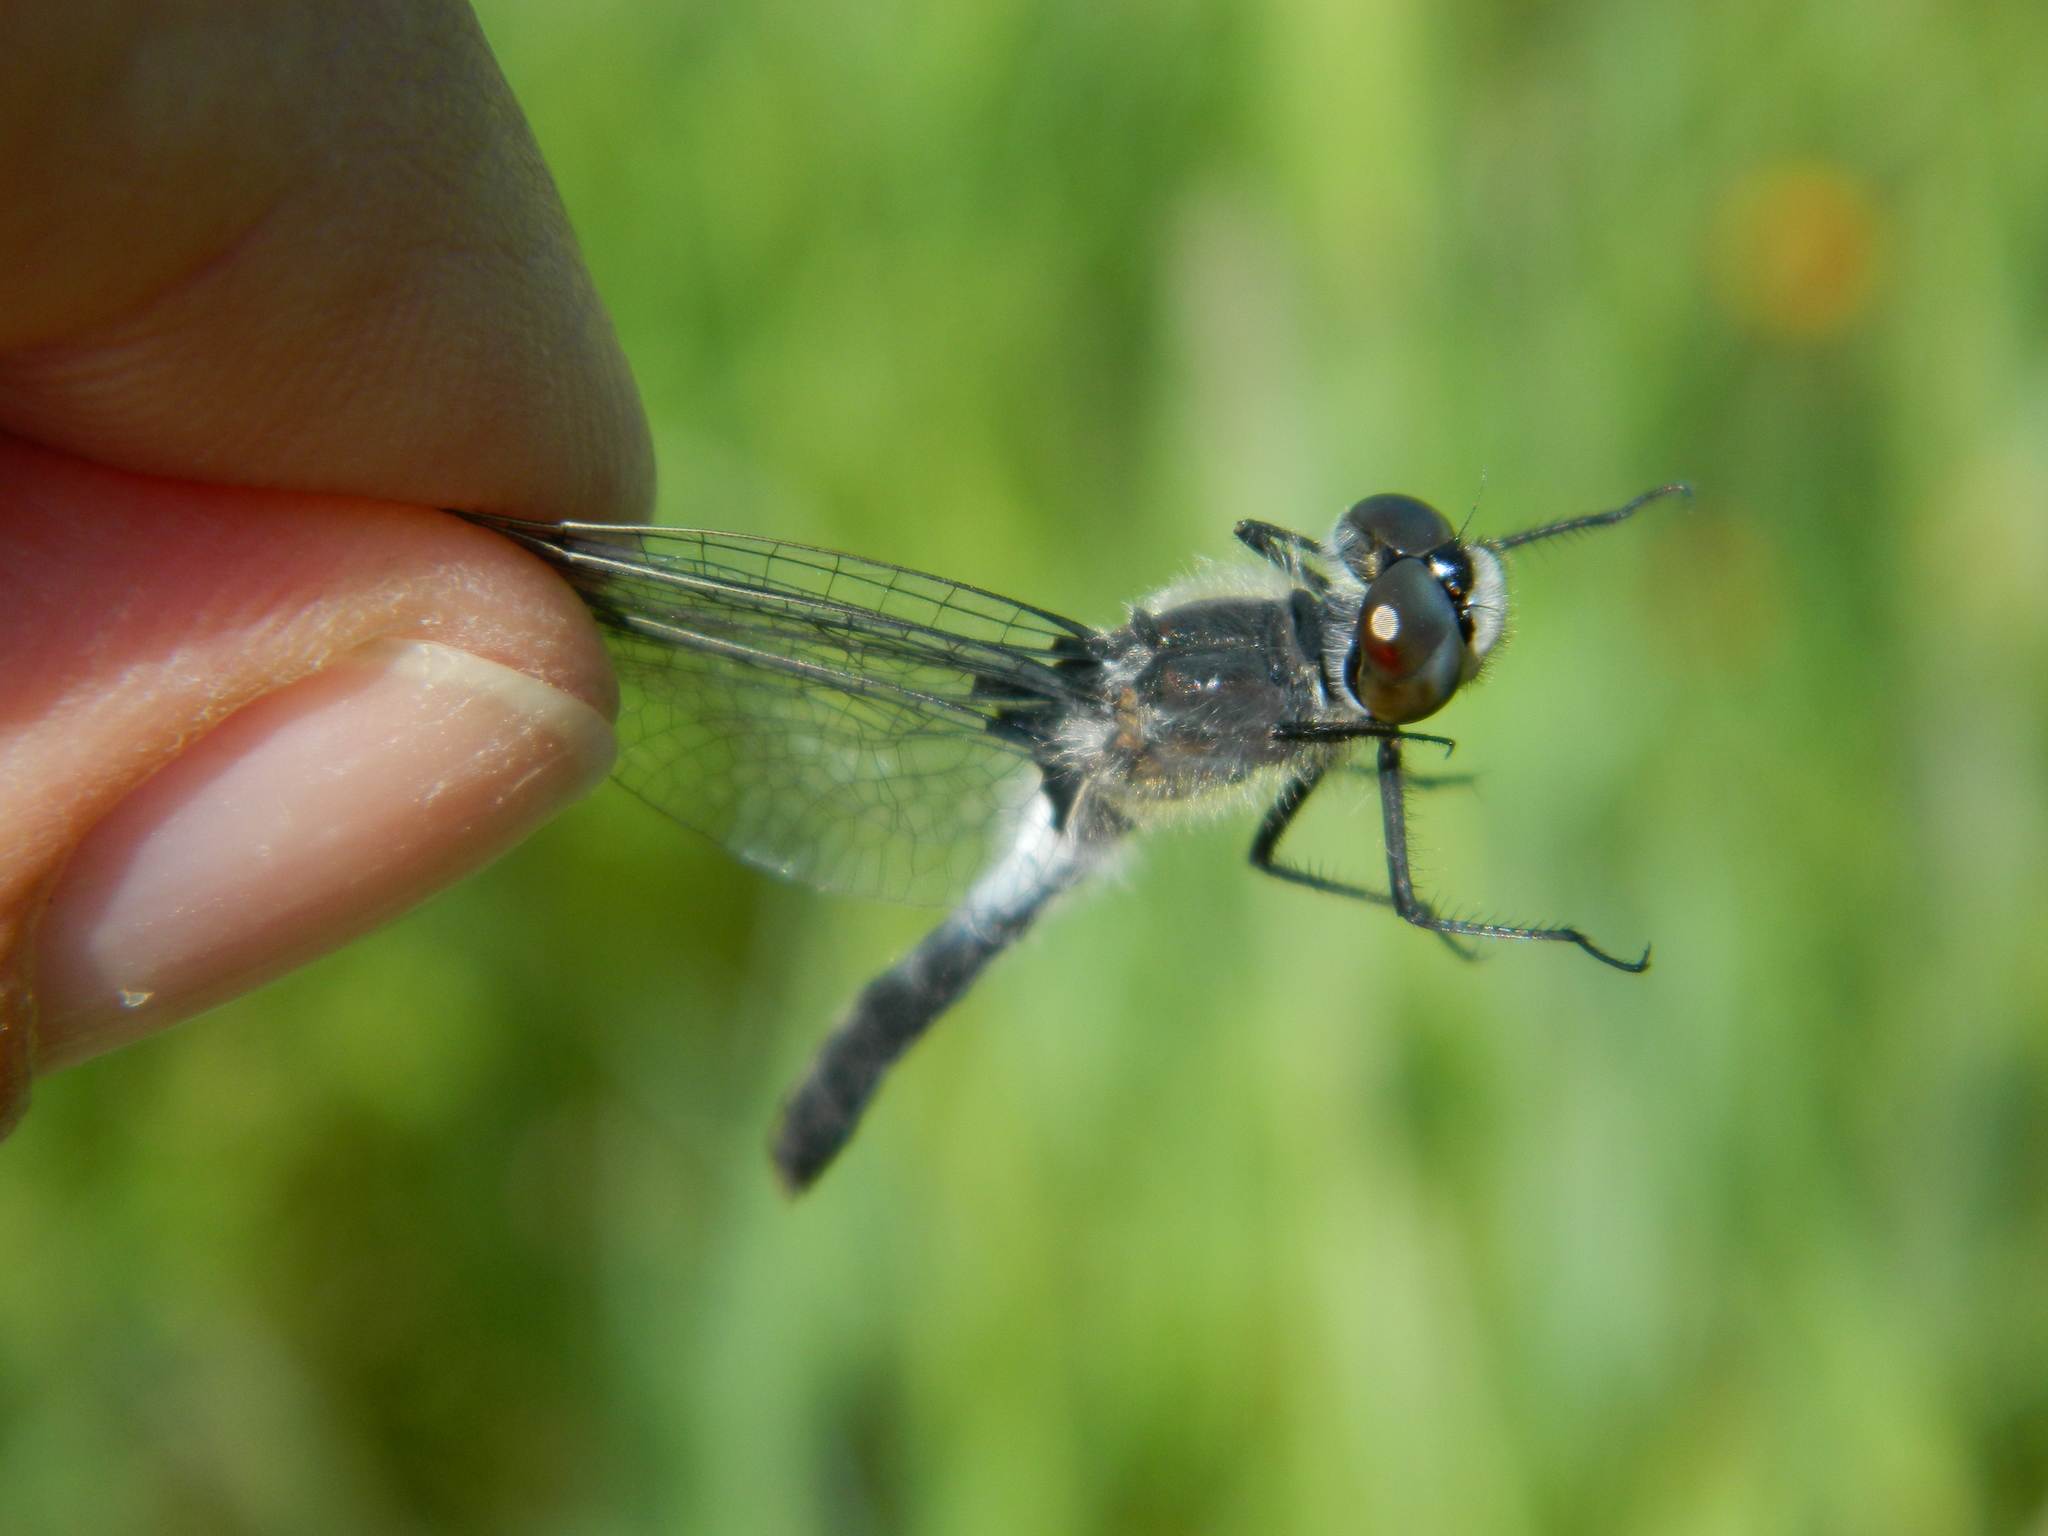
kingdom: Animalia
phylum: Arthropoda
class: Insecta
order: Odonata
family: Libellulidae
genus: Leucorrhinia
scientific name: Leucorrhinia frigida
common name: Frosted whiteface
